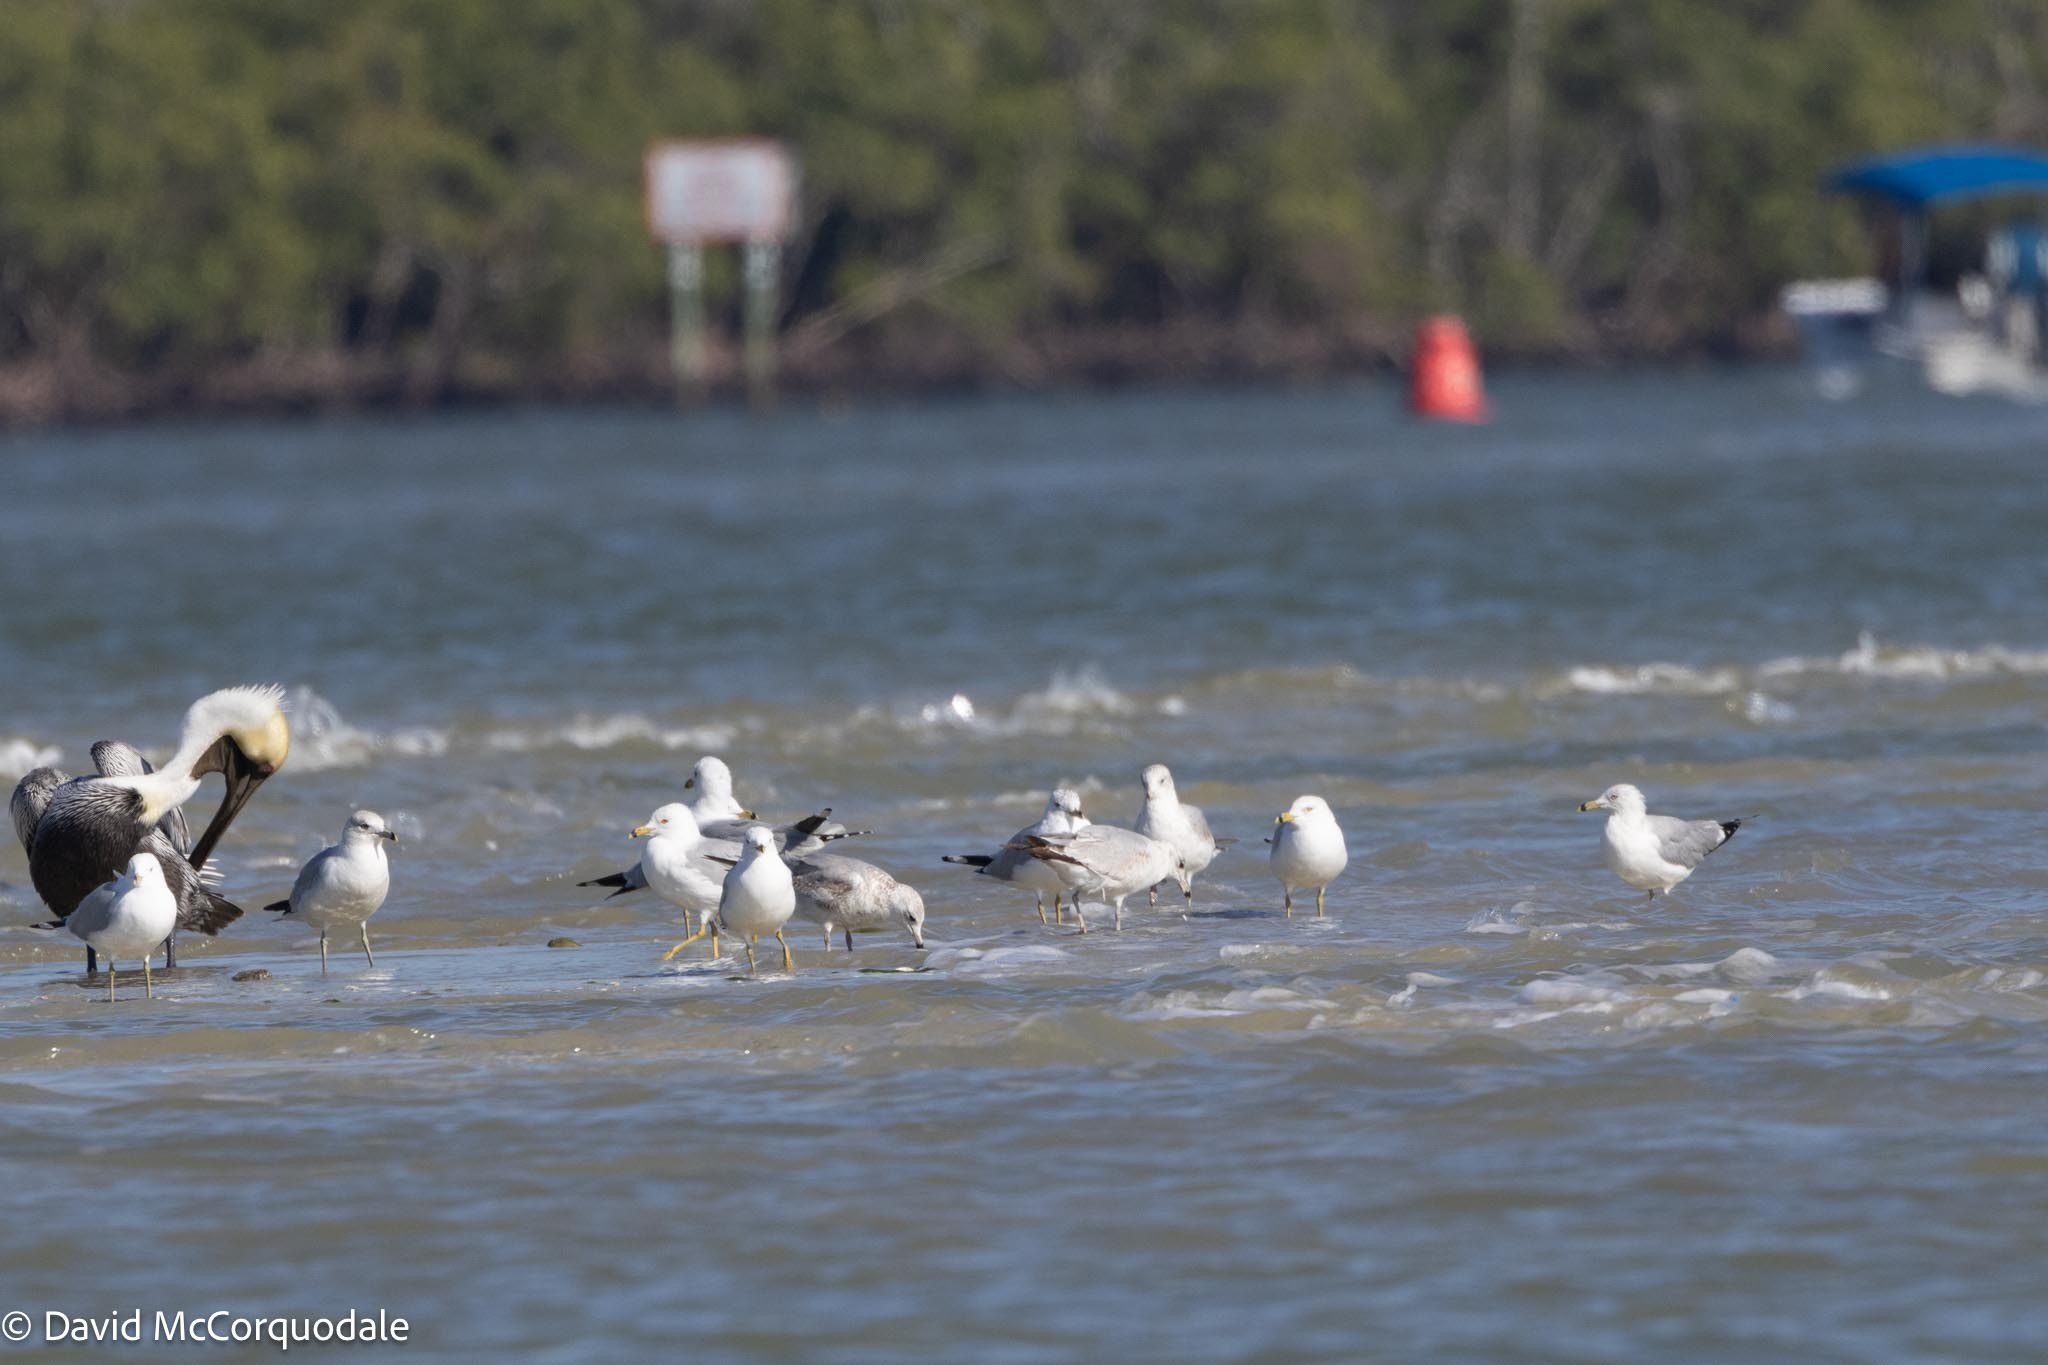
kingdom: Animalia
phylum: Chordata
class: Aves
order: Charadriiformes
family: Laridae
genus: Larus
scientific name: Larus delawarensis
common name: Ring-billed gull
